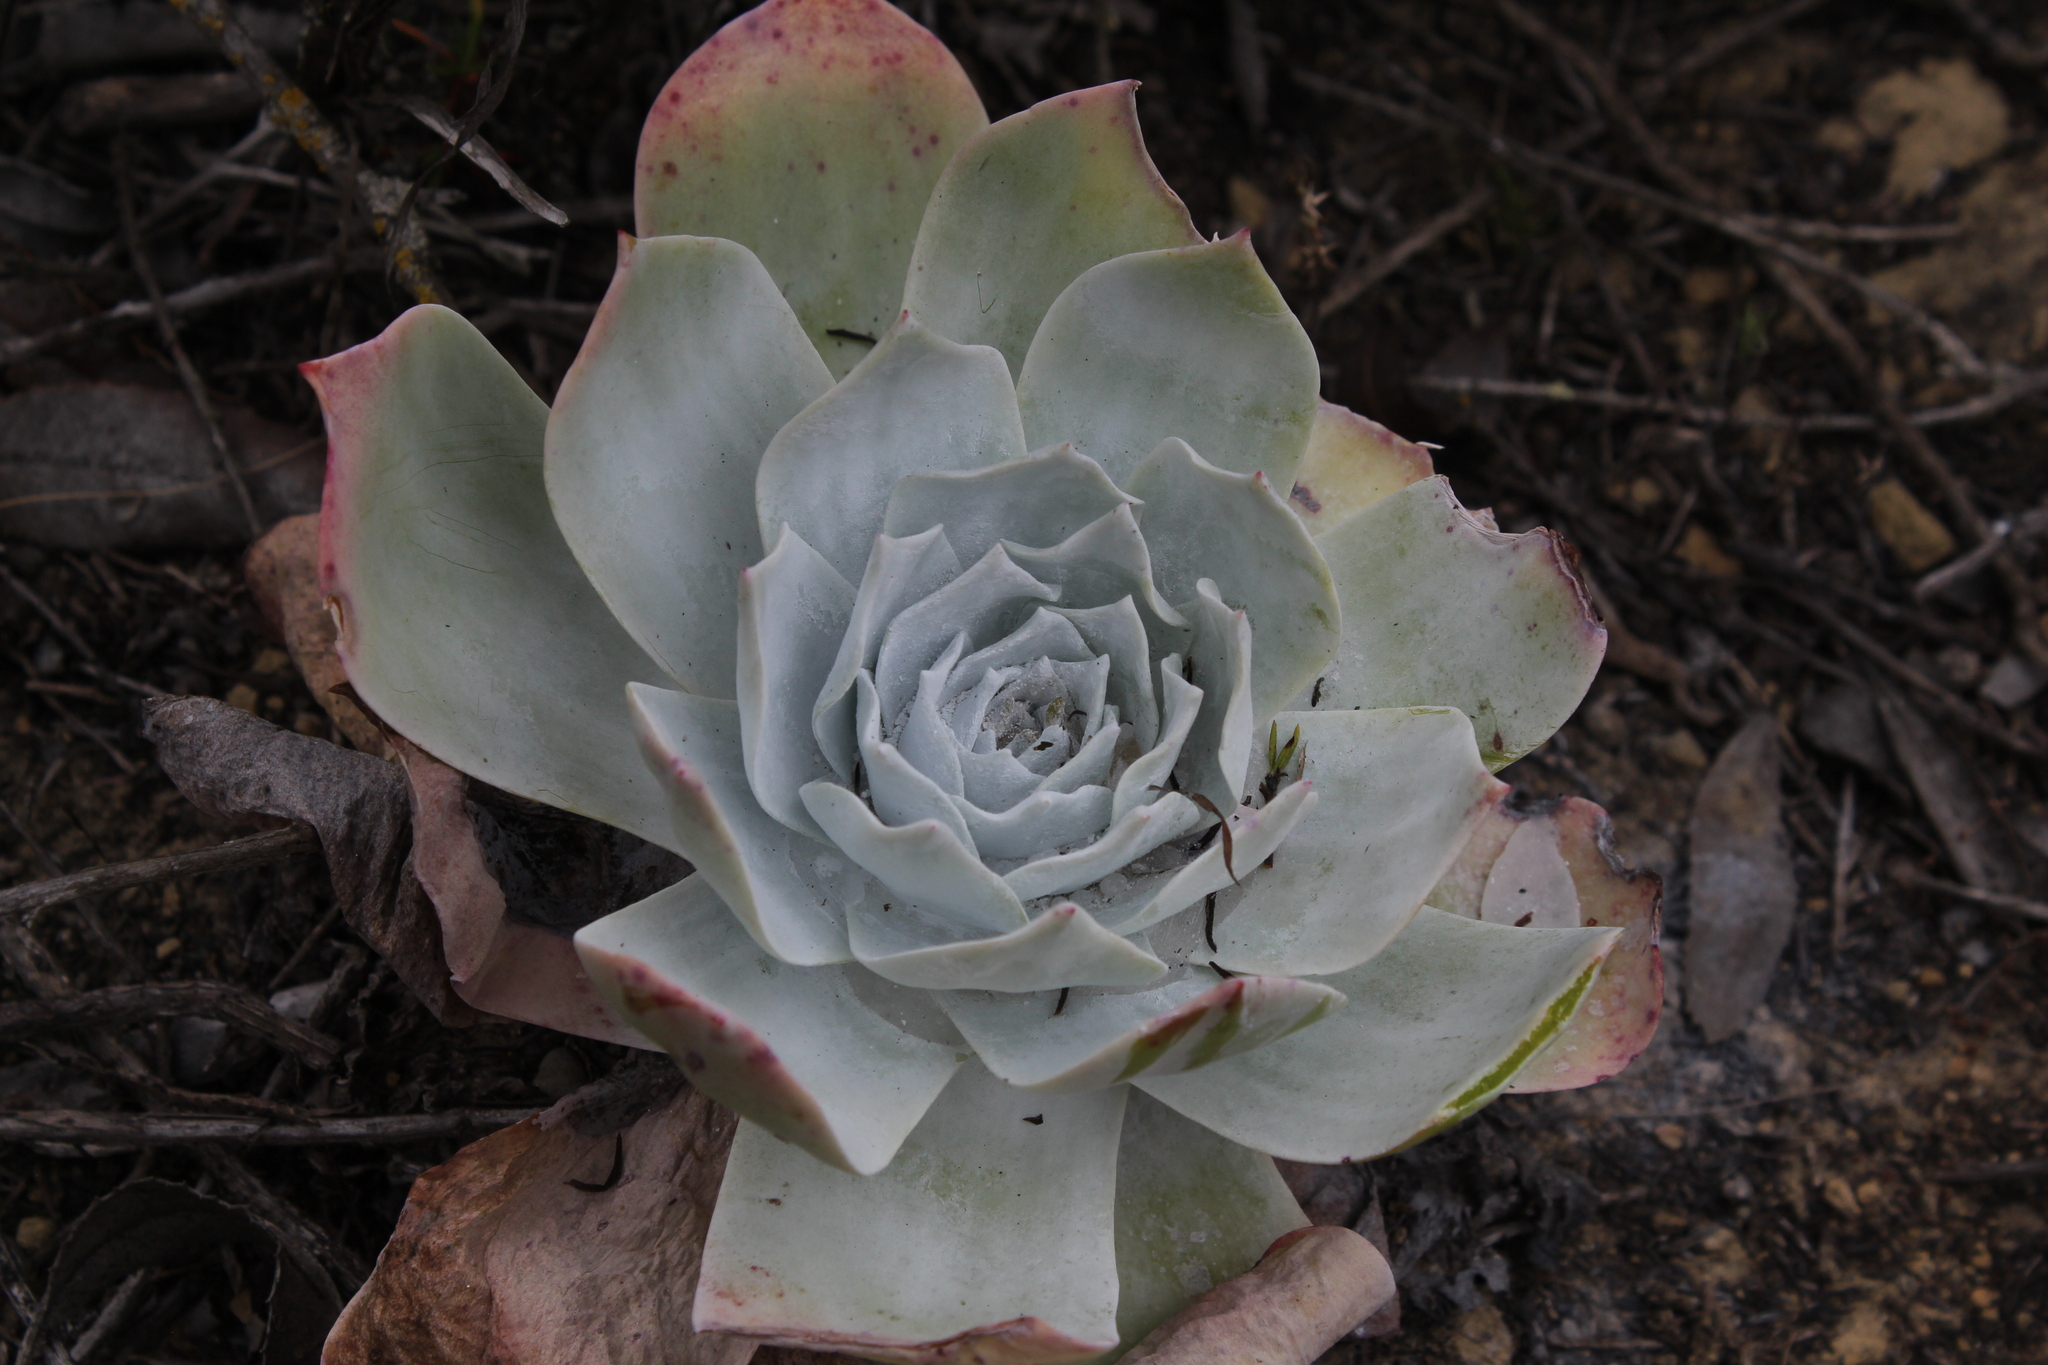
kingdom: Plantae
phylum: Tracheophyta
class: Magnoliopsida
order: Saxifragales
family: Crassulaceae
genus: Dudleya
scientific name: Dudleya pulverulenta
